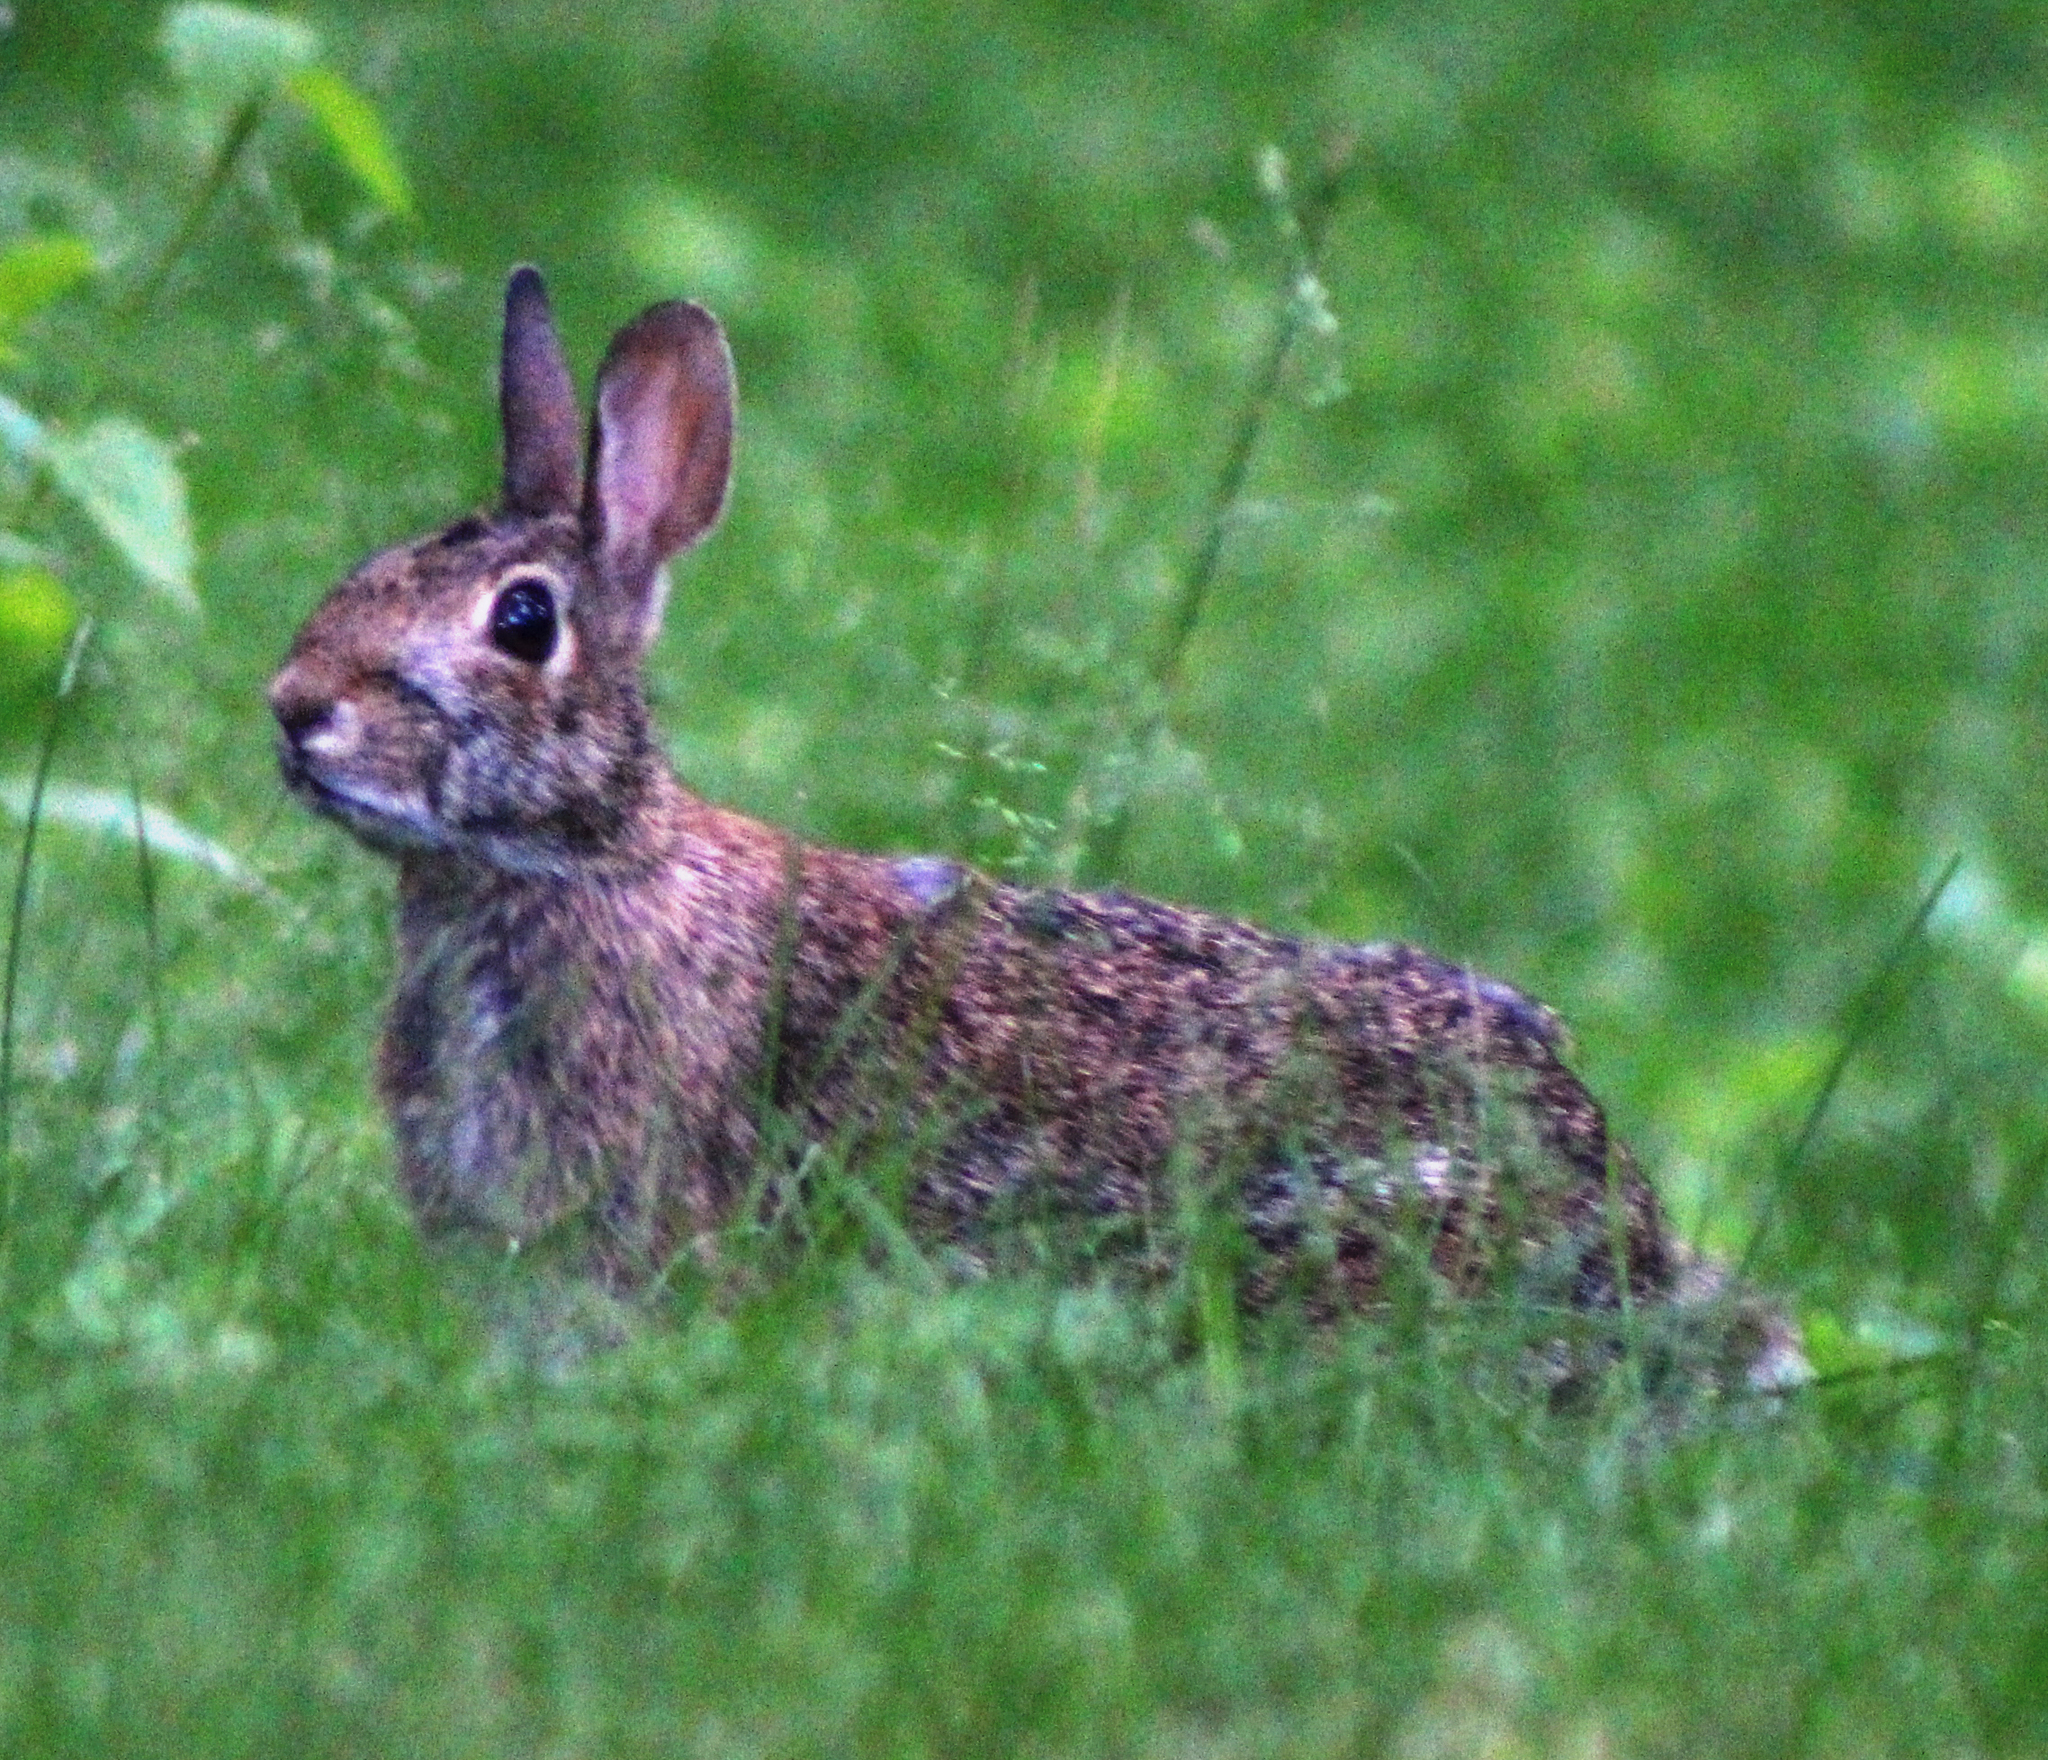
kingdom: Animalia
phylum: Chordata
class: Mammalia
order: Lagomorpha
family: Leporidae
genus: Sylvilagus
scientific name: Sylvilagus floridanus
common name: Eastern cottontail
